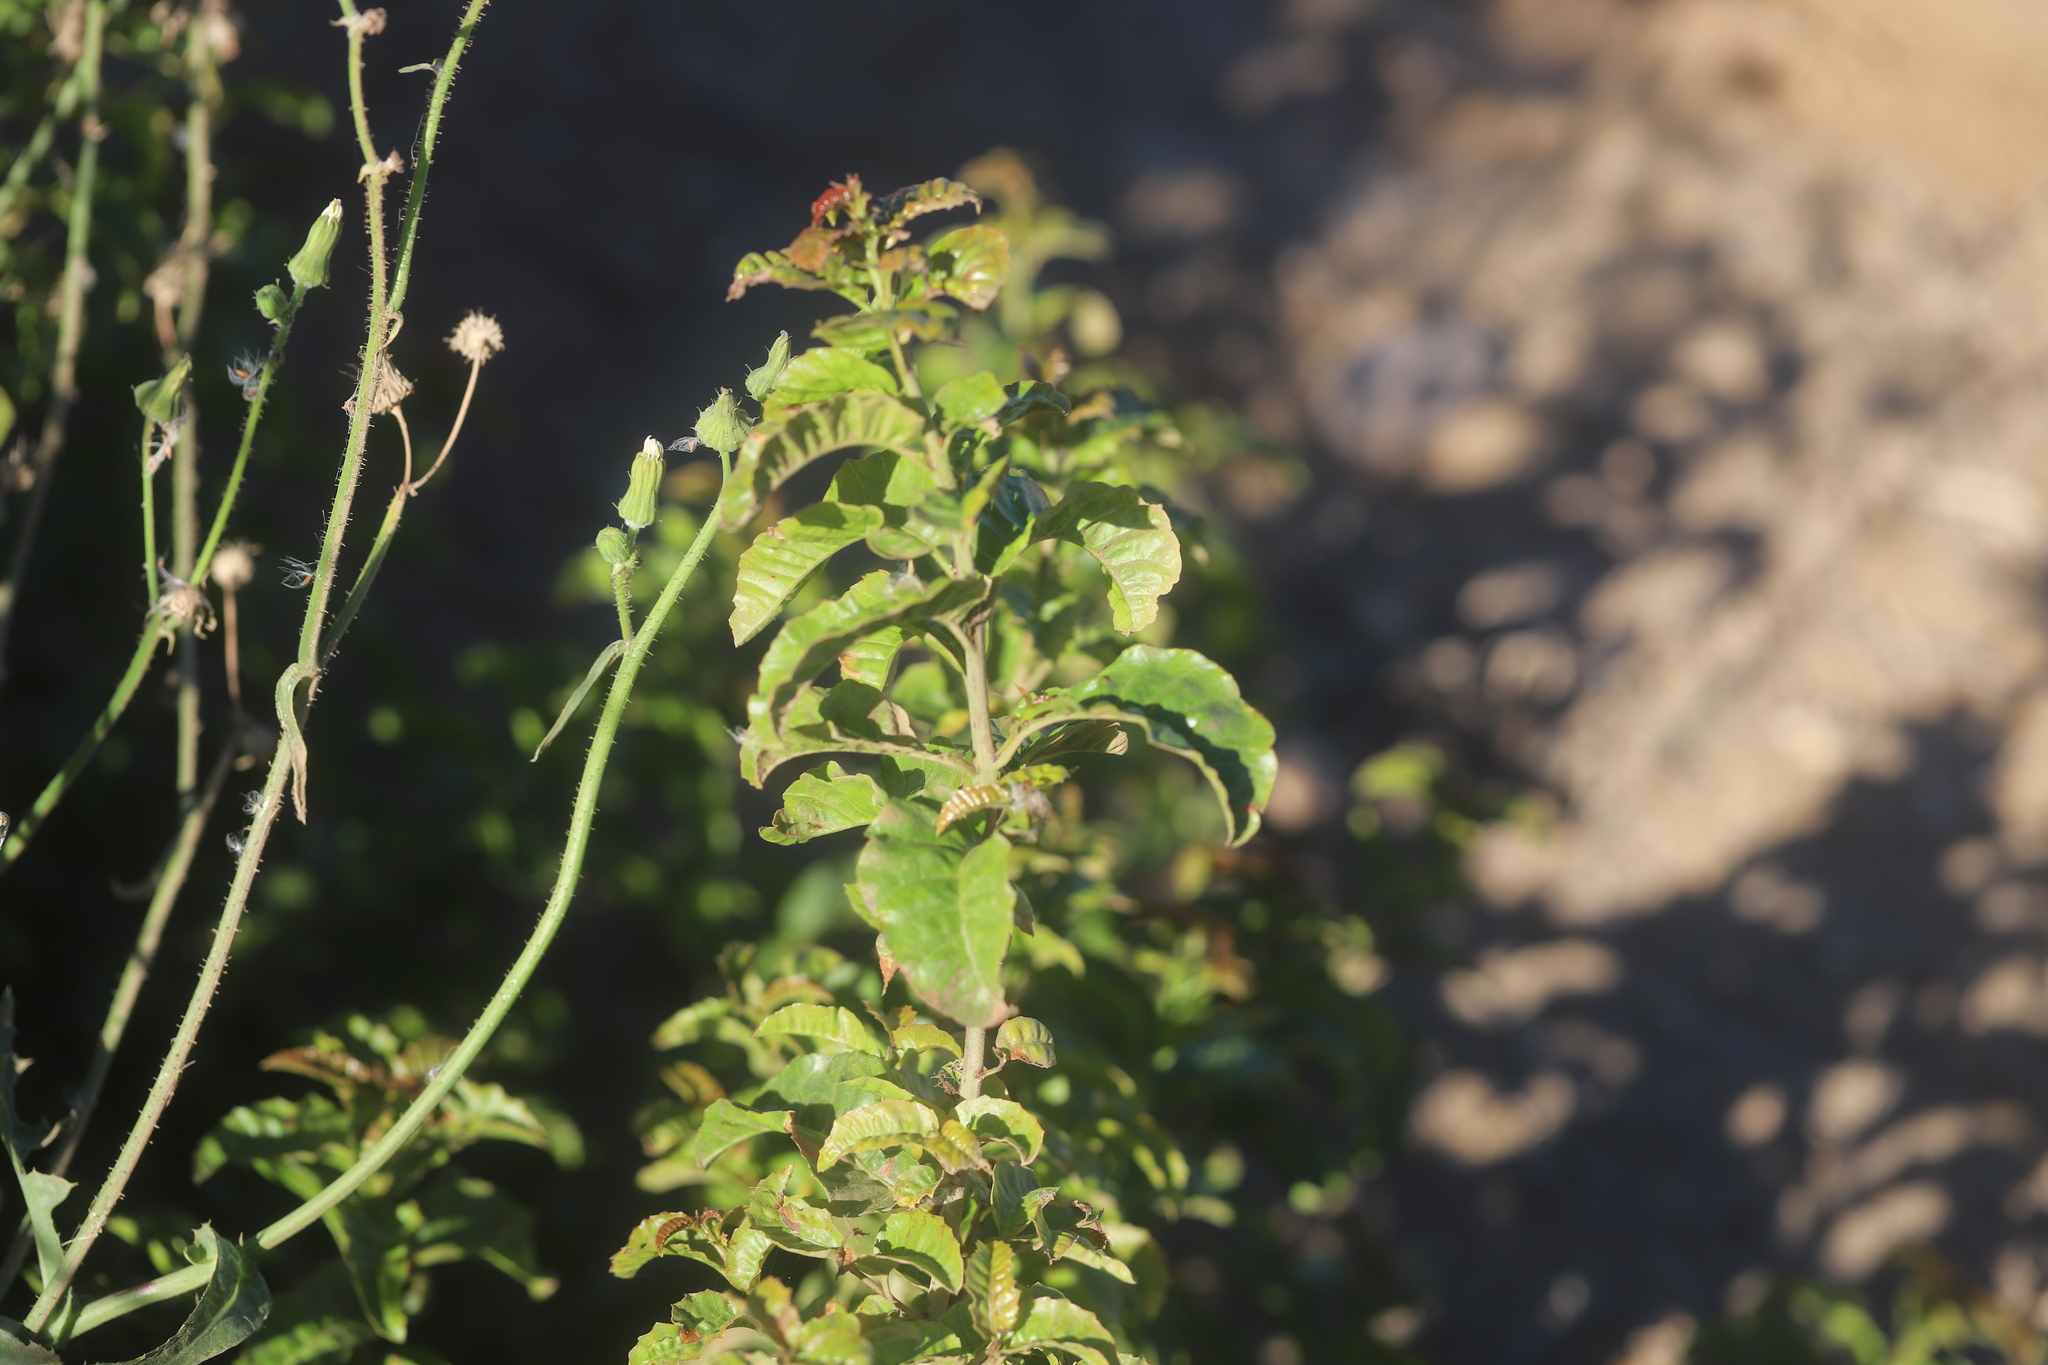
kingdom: Plantae
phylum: Tracheophyta
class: Magnoliopsida
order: Sapindales
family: Anacardiaceae
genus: Schinus
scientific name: Schinus latifolia
